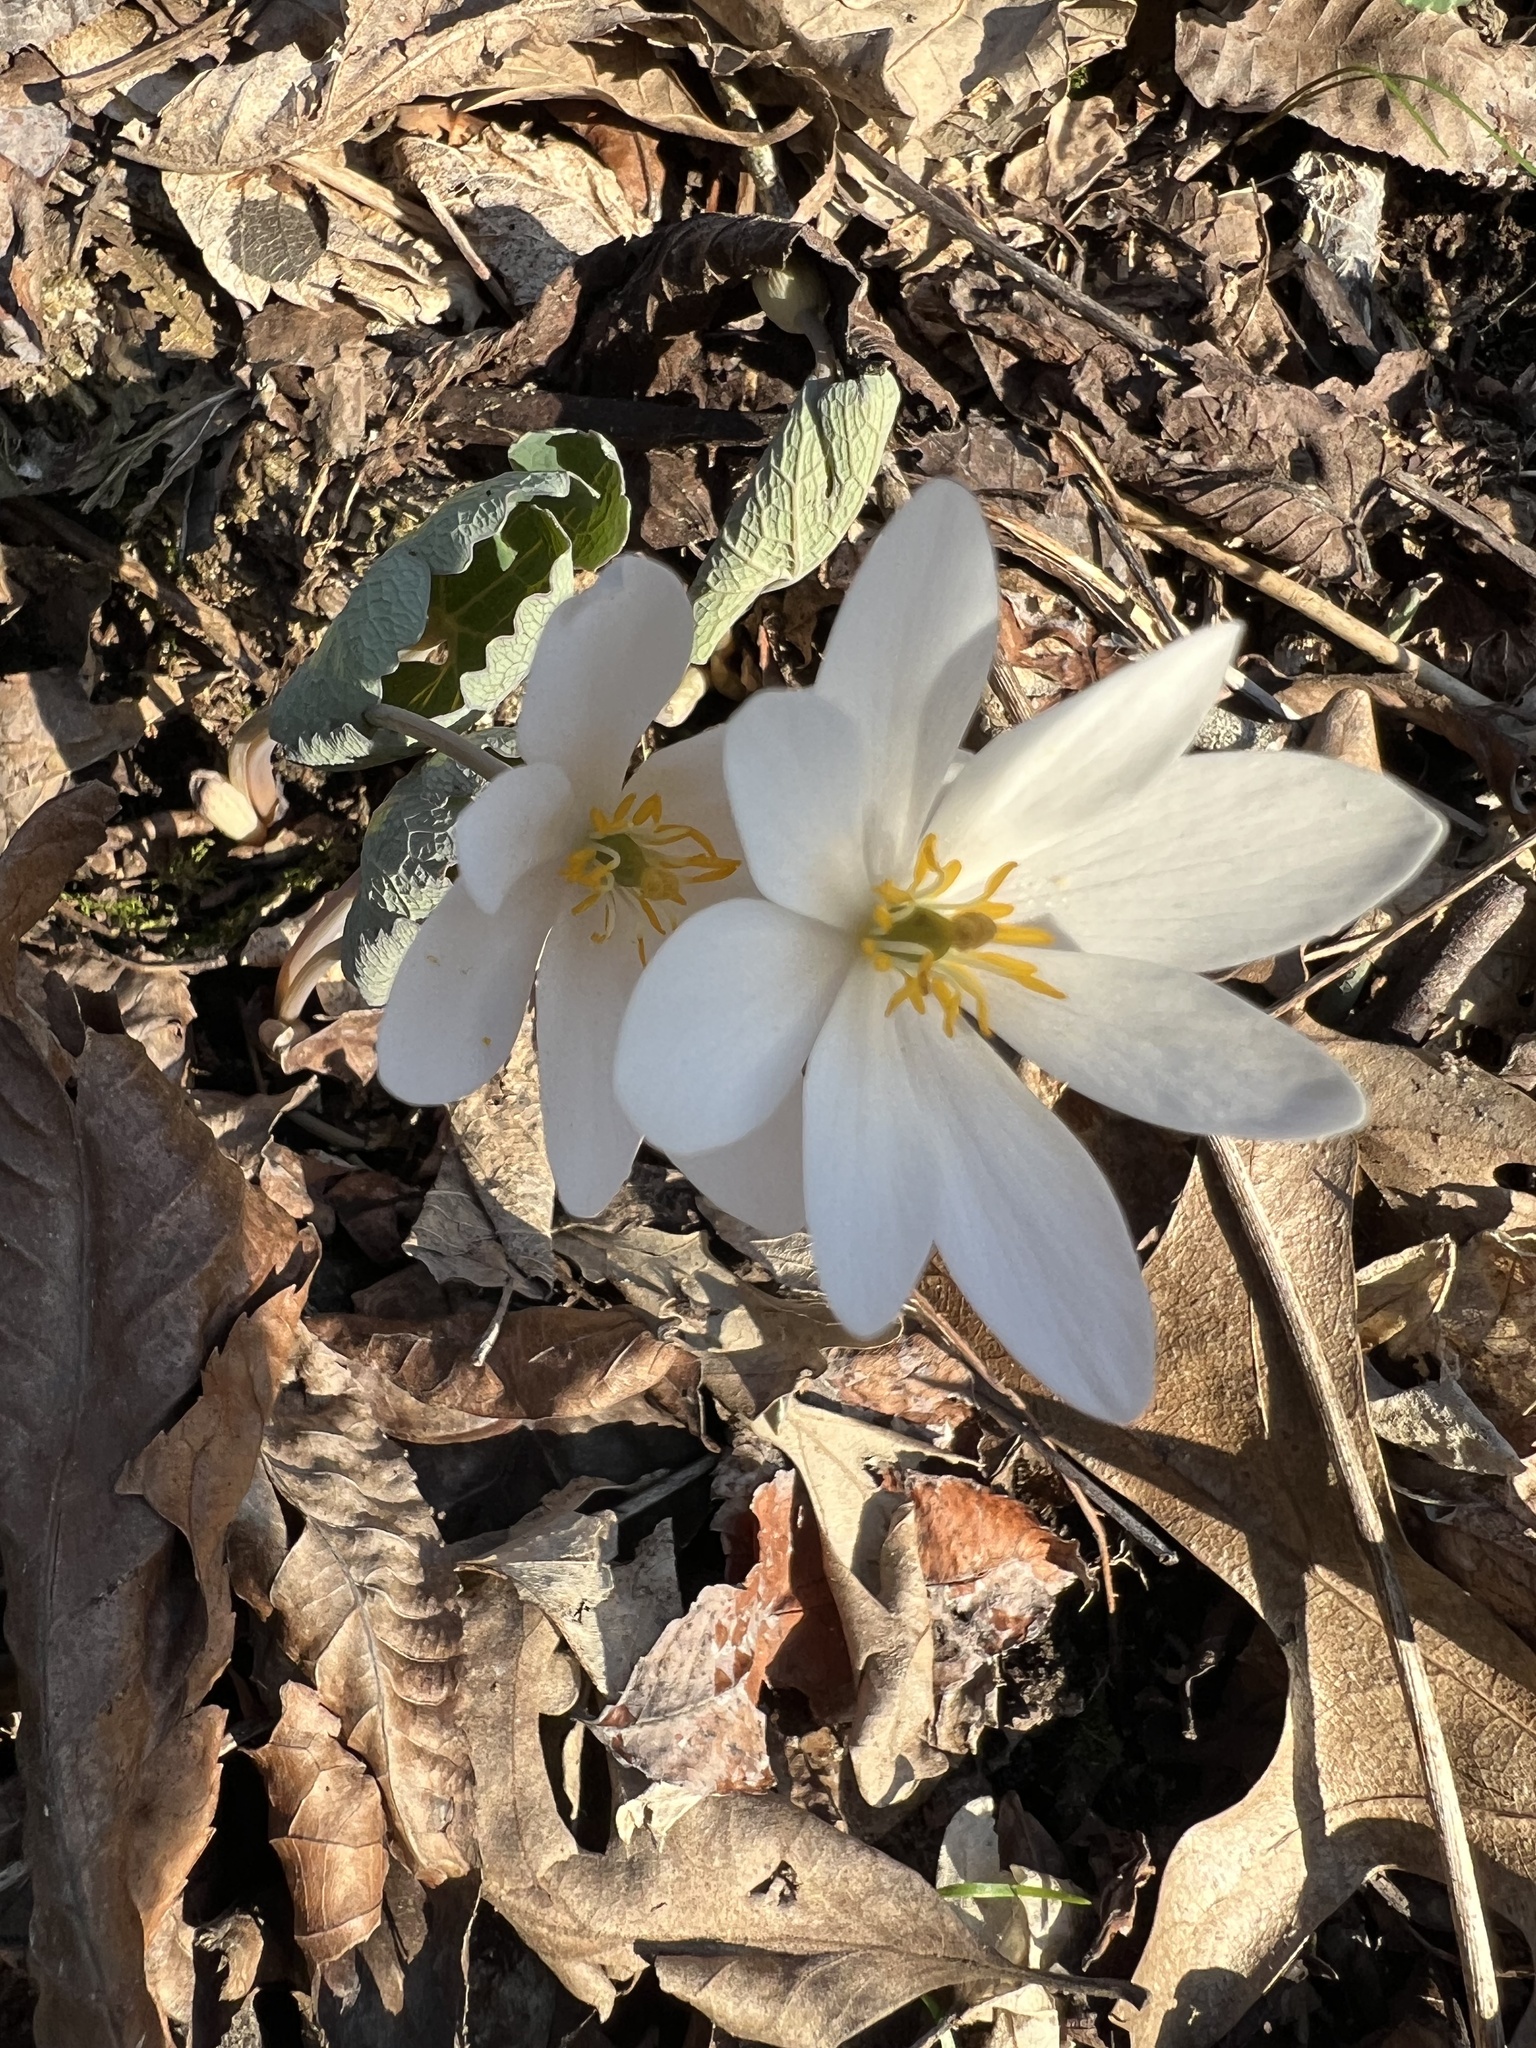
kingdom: Plantae
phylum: Tracheophyta
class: Magnoliopsida
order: Ranunculales
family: Papaveraceae
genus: Sanguinaria
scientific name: Sanguinaria canadensis
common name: Bloodroot
